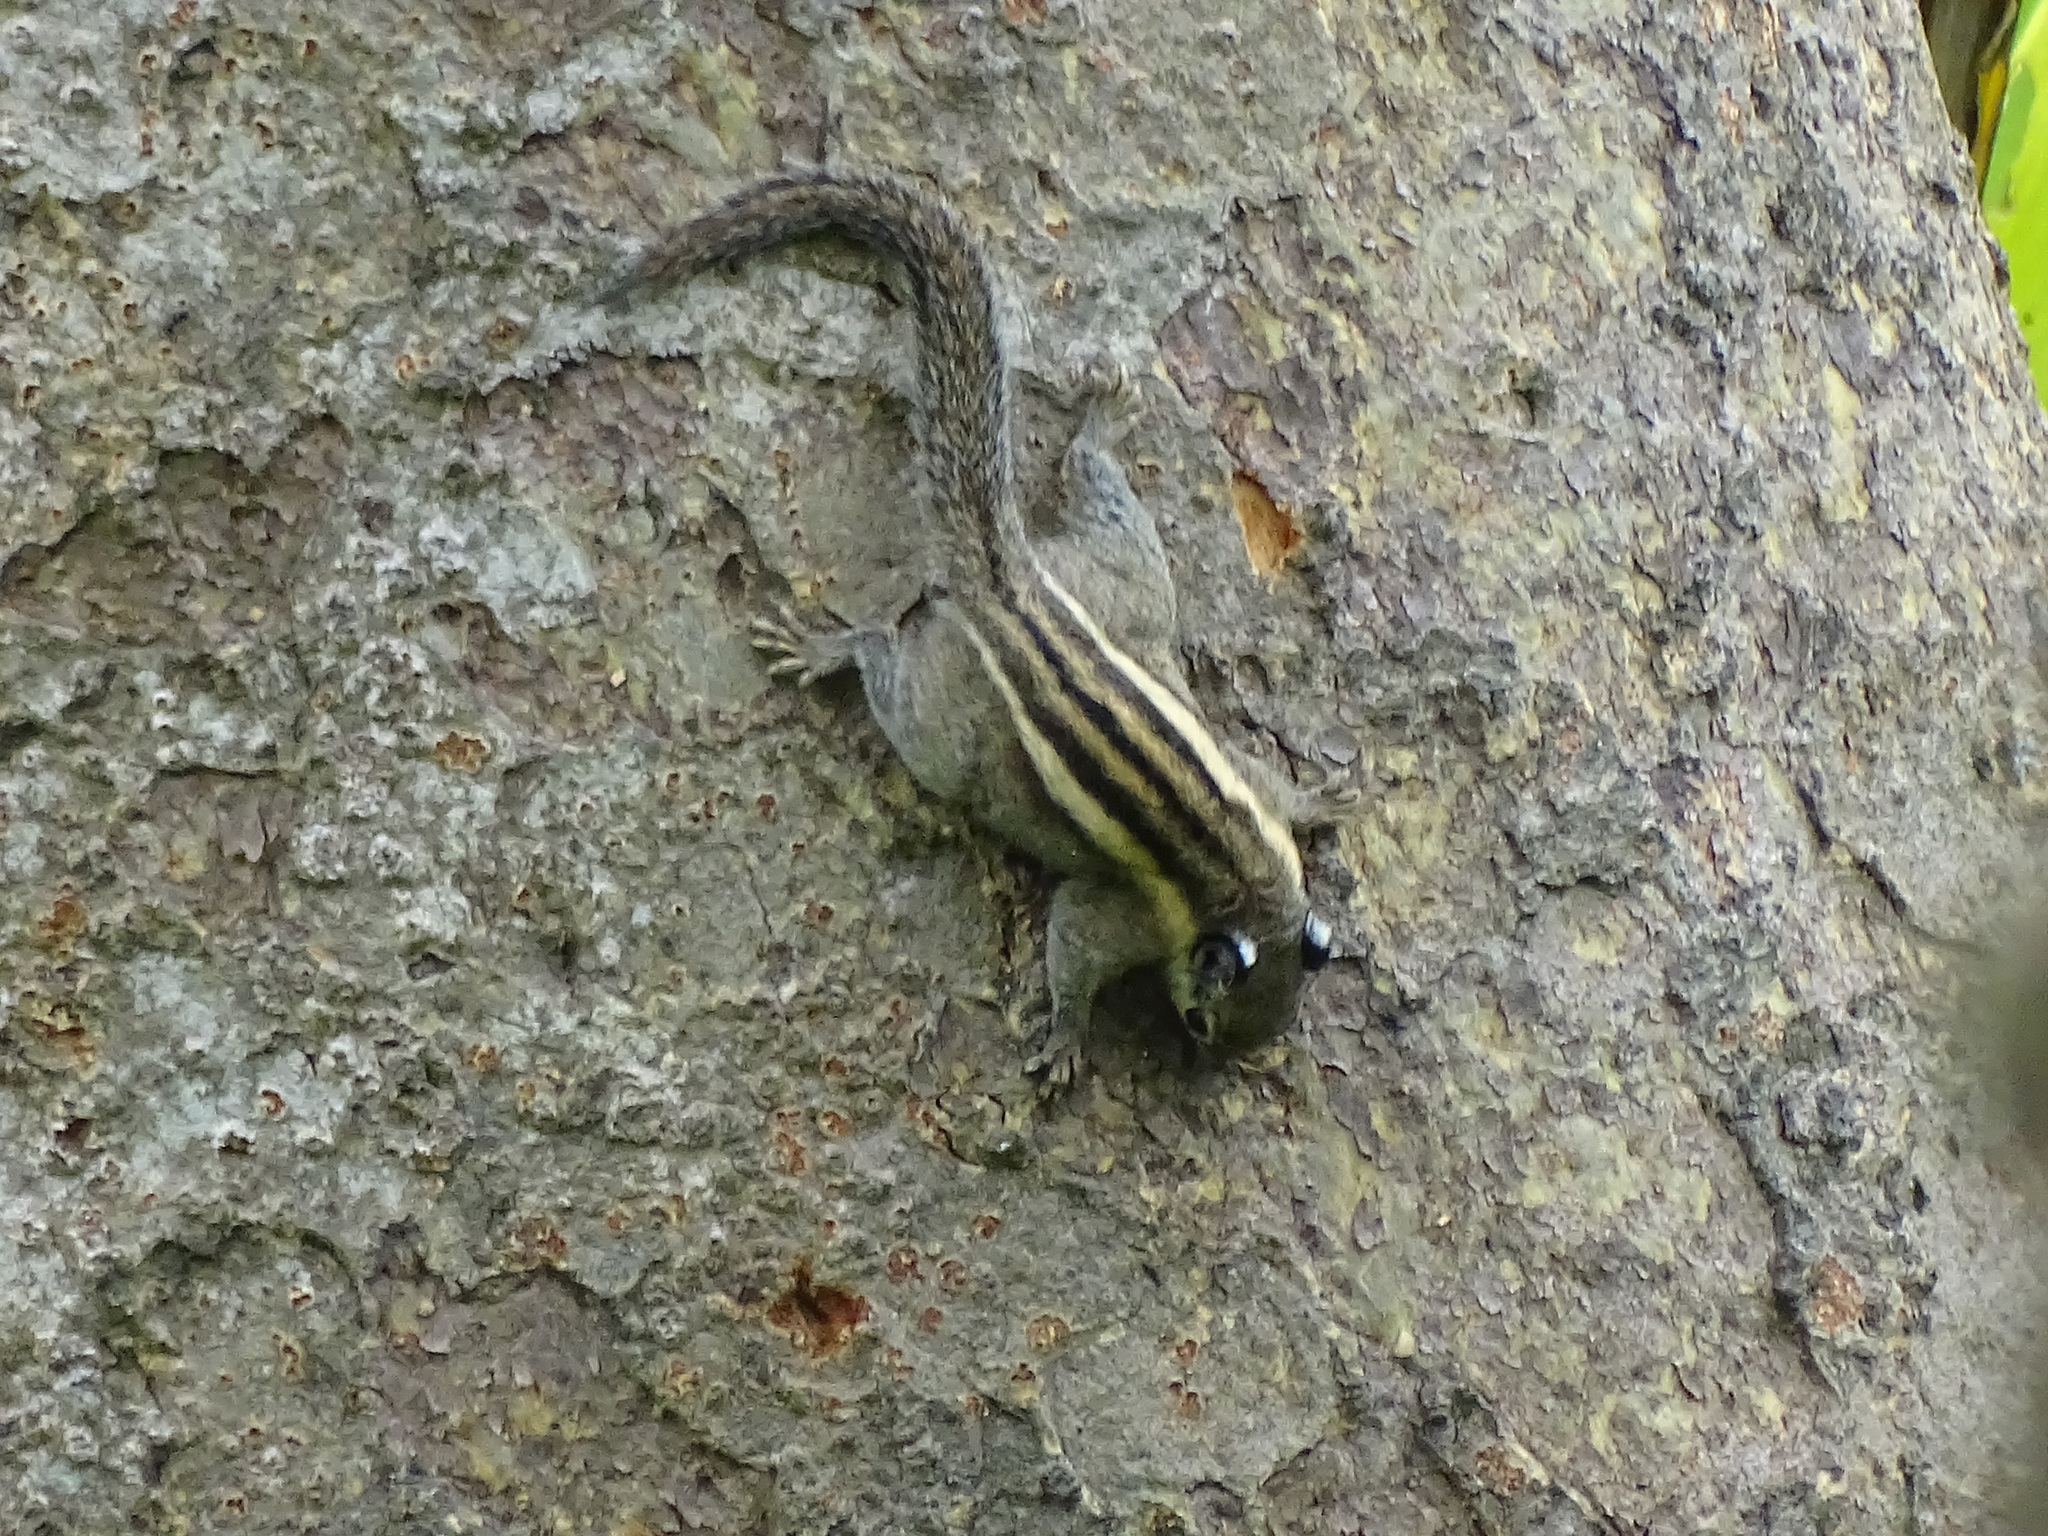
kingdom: Animalia
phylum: Chordata
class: Mammalia
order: Rodentia
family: Sciuridae
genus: Tamiops
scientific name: Tamiops mcclellandii
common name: Himalayan striped squirrel
